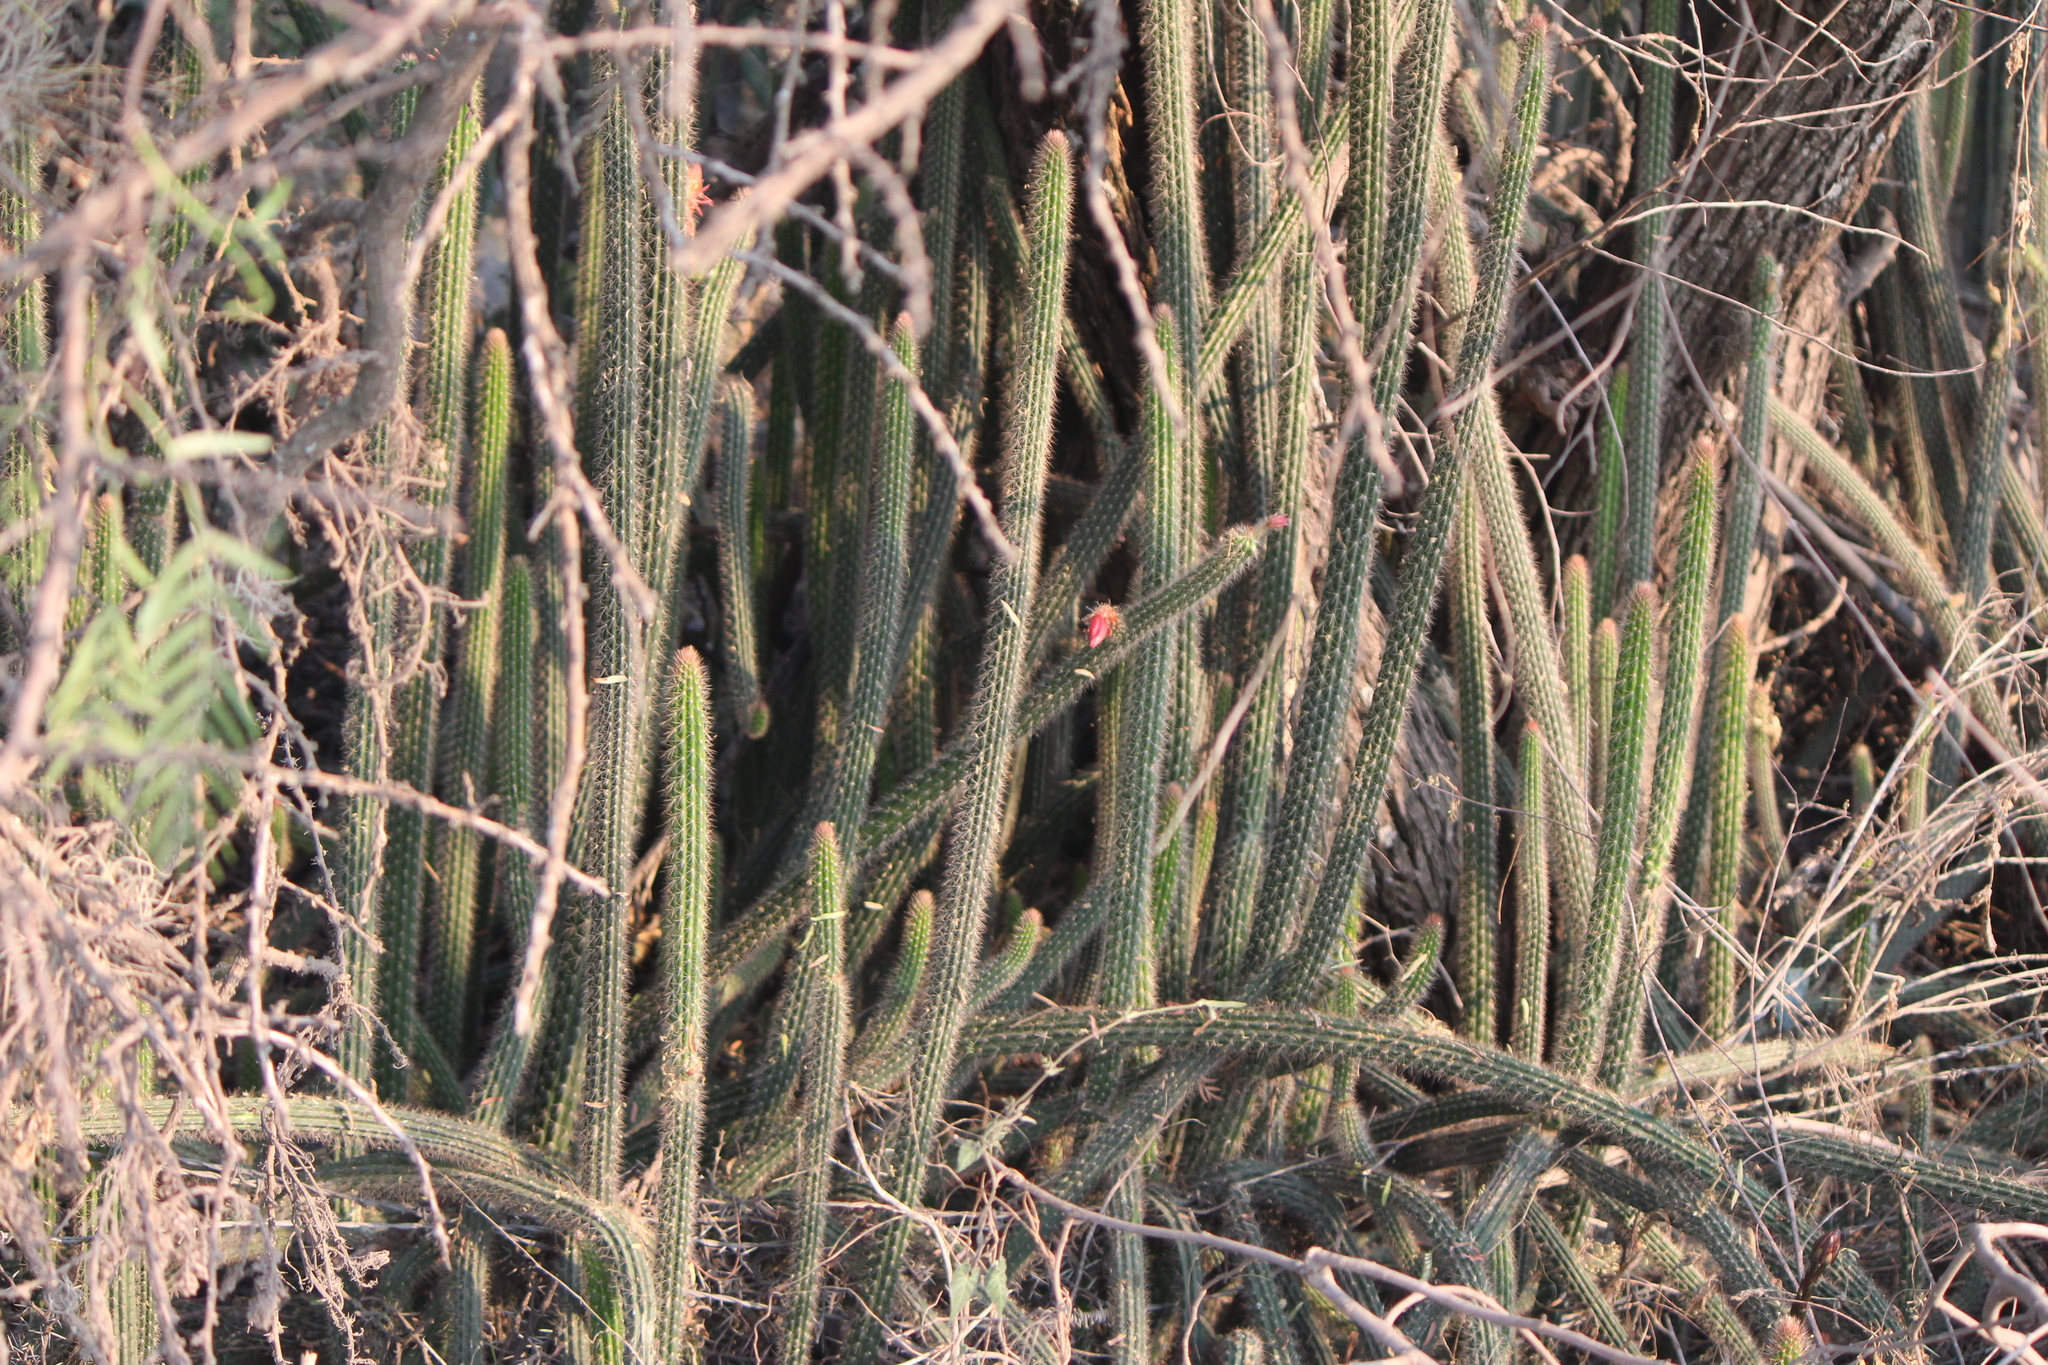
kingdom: Plantae
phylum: Tracheophyta
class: Magnoliopsida
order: Caryophyllales
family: Cactaceae
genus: Peniocereus
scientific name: Peniocereus serpentinus
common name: Serpent cactus
